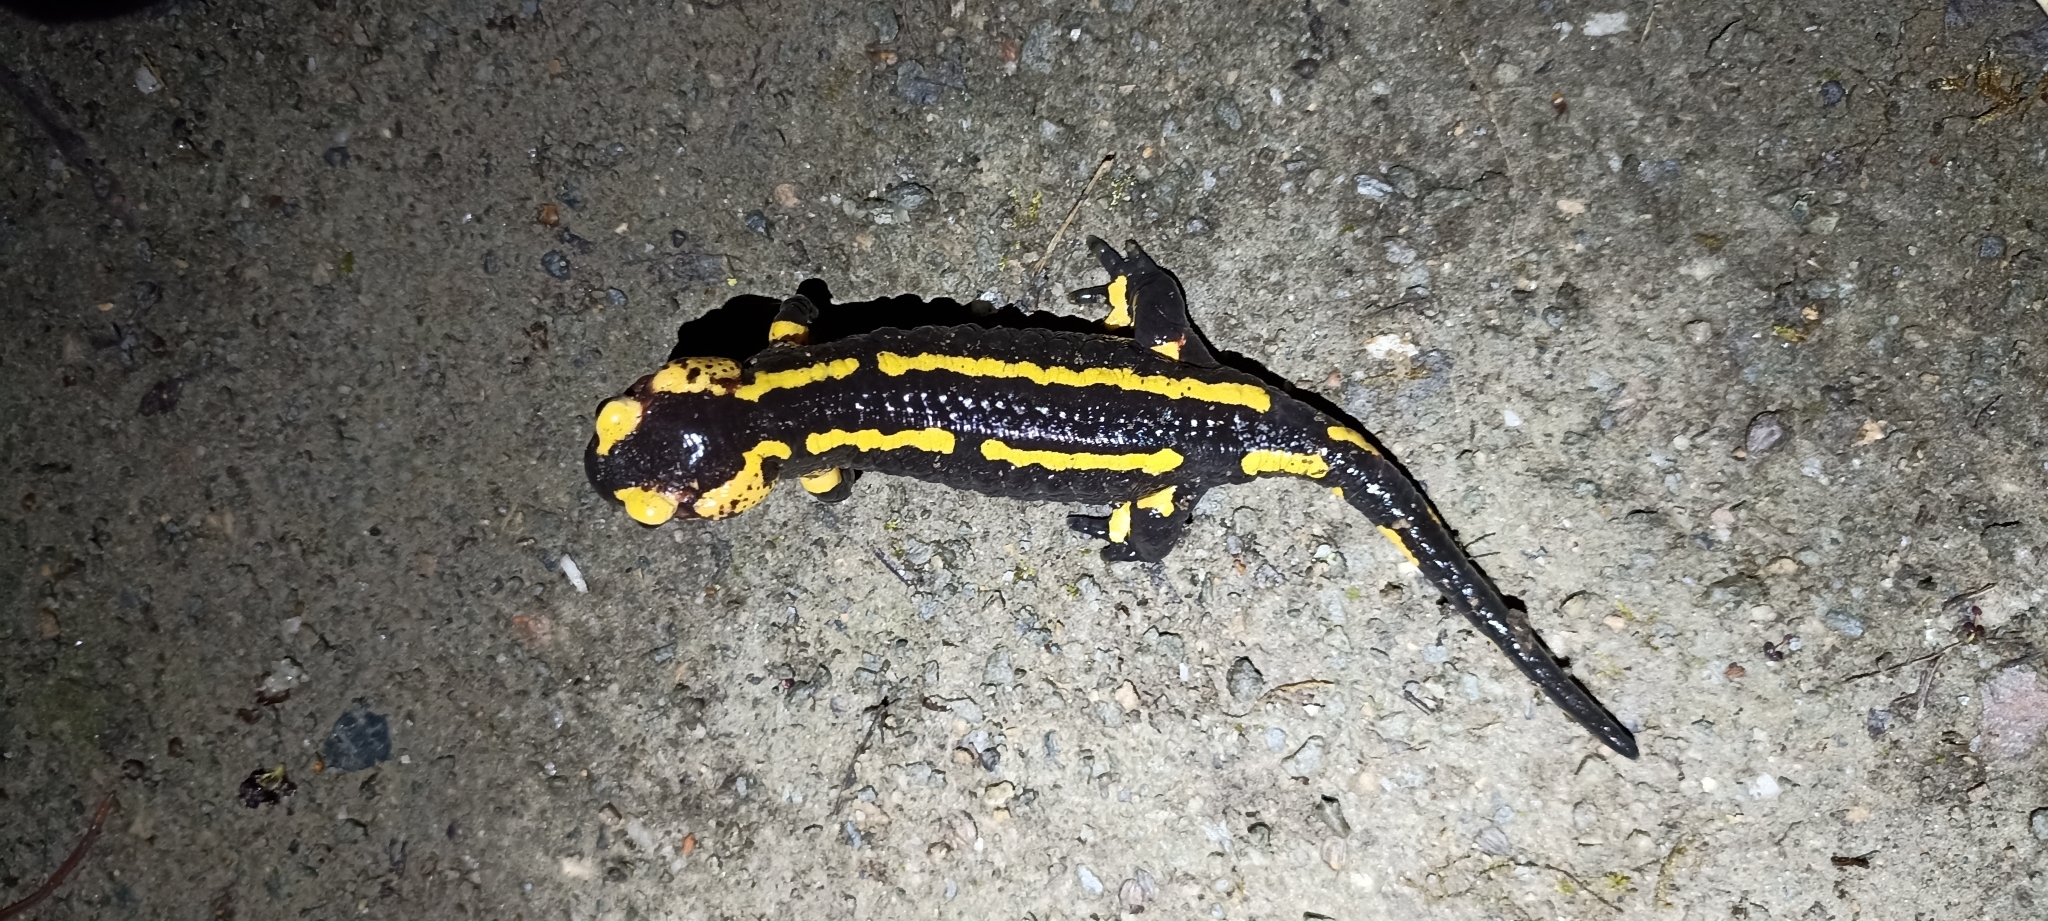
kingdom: Animalia
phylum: Chordata
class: Amphibia
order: Caudata
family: Salamandridae
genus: Salamandra
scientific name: Salamandra salamandra
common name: Fire salamander
